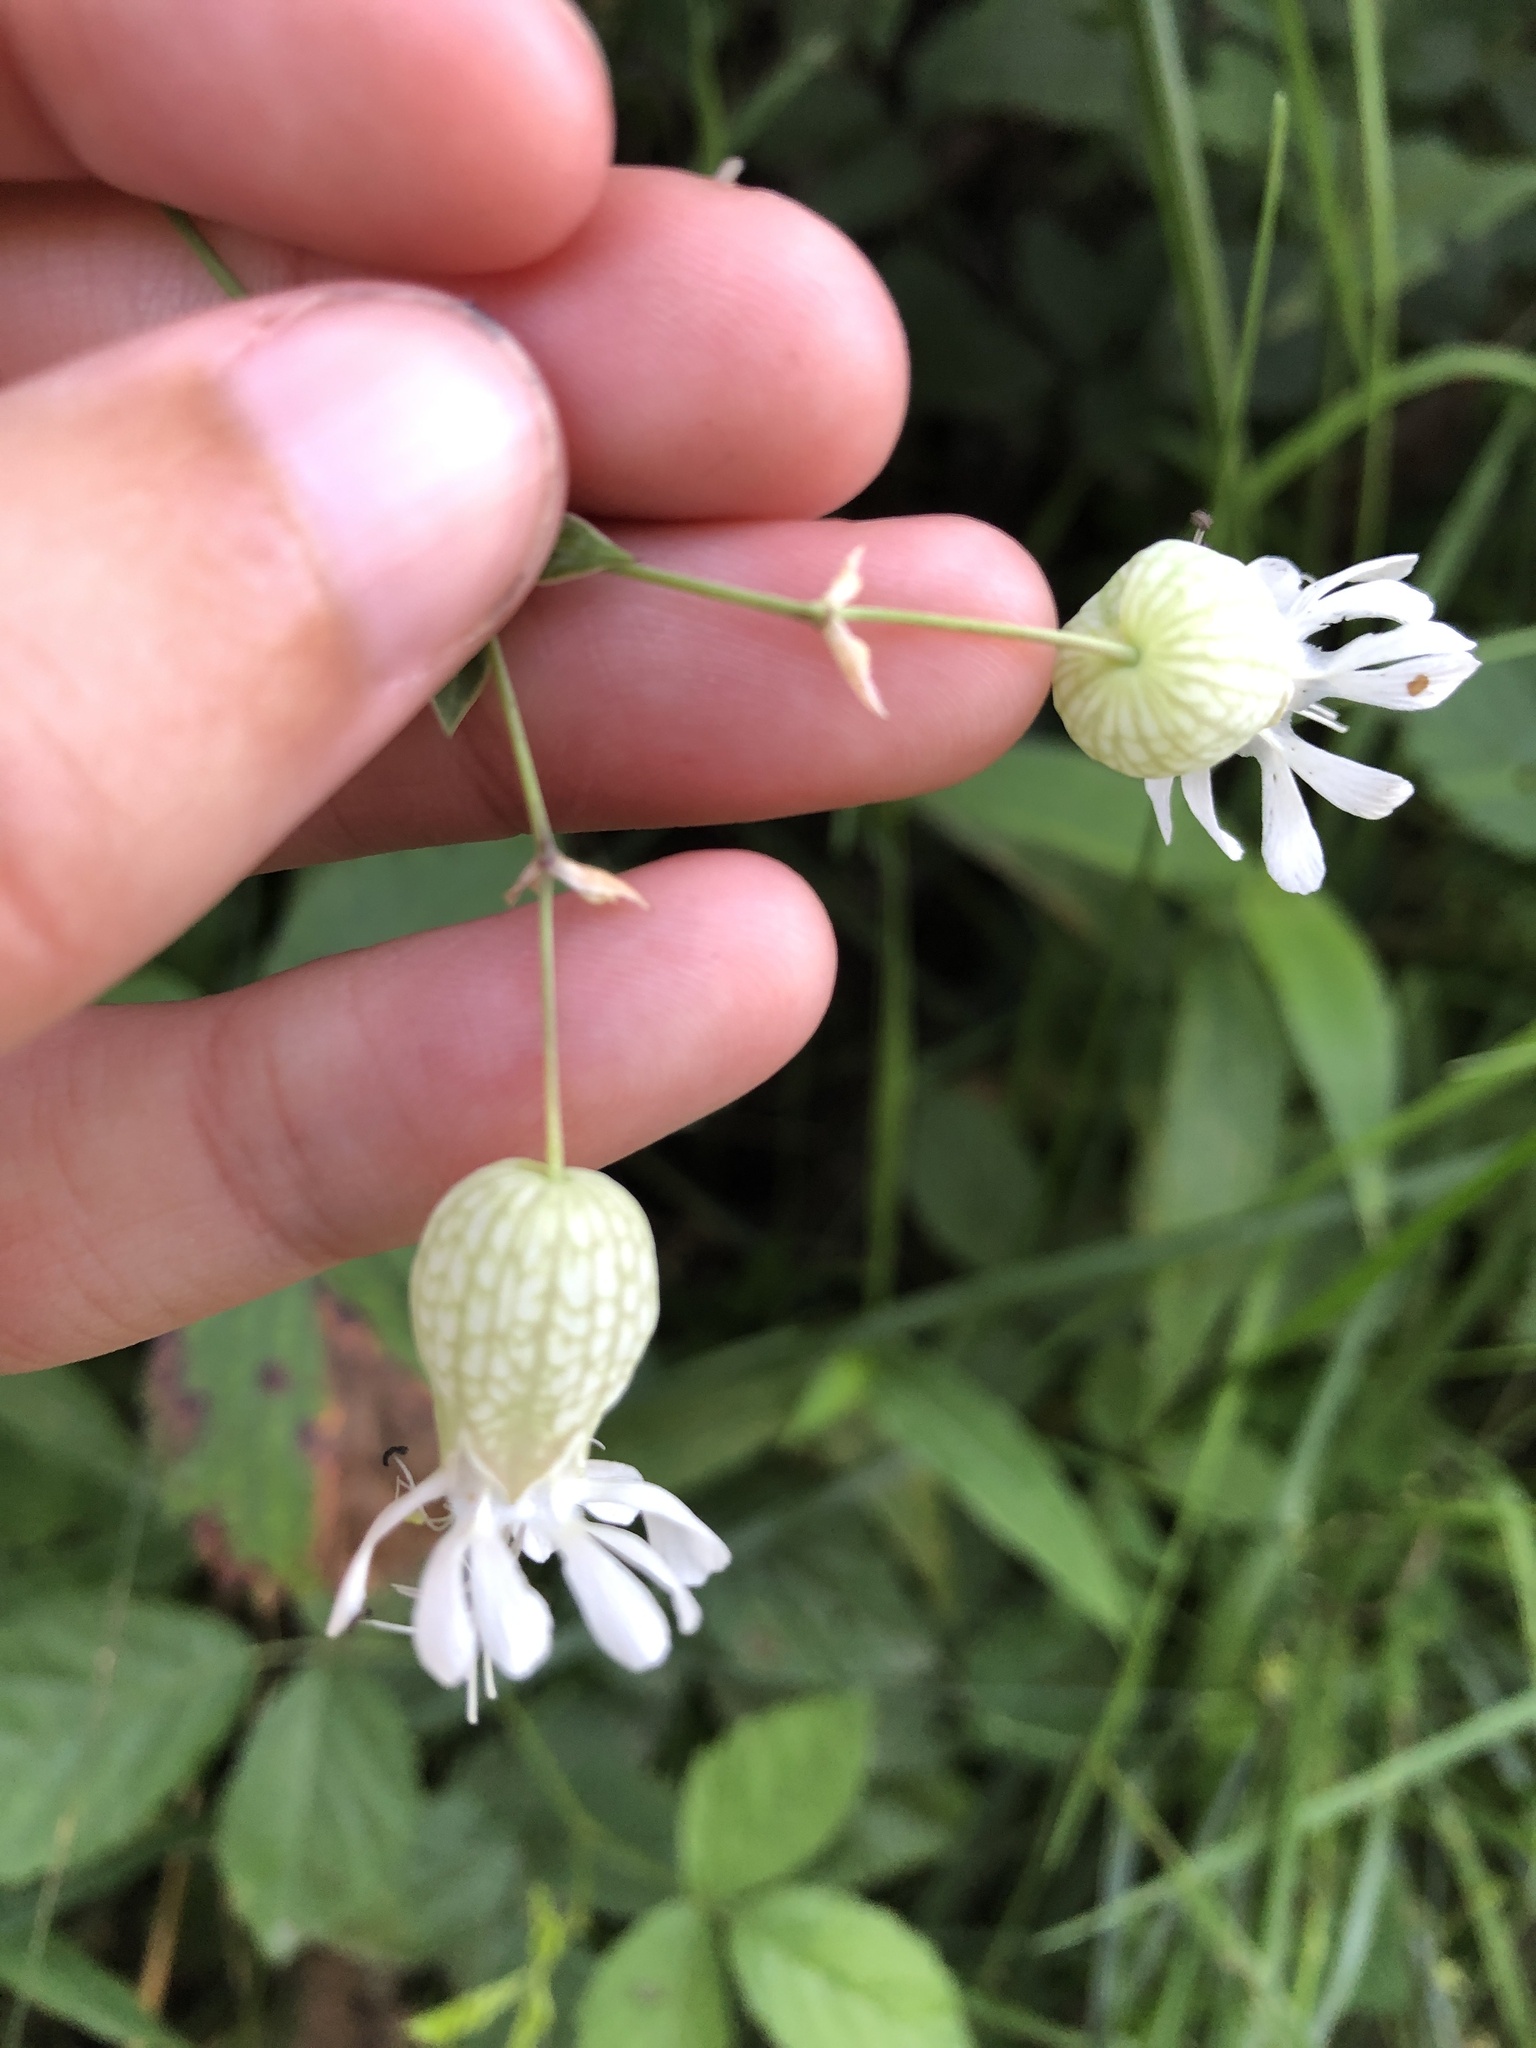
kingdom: Plantae
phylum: Tracheophyta
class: Magnoliopsida
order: Caryophyllales
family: Caryophyllaceae
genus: Silene
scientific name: Silene vulgaris
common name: Bladder campion
